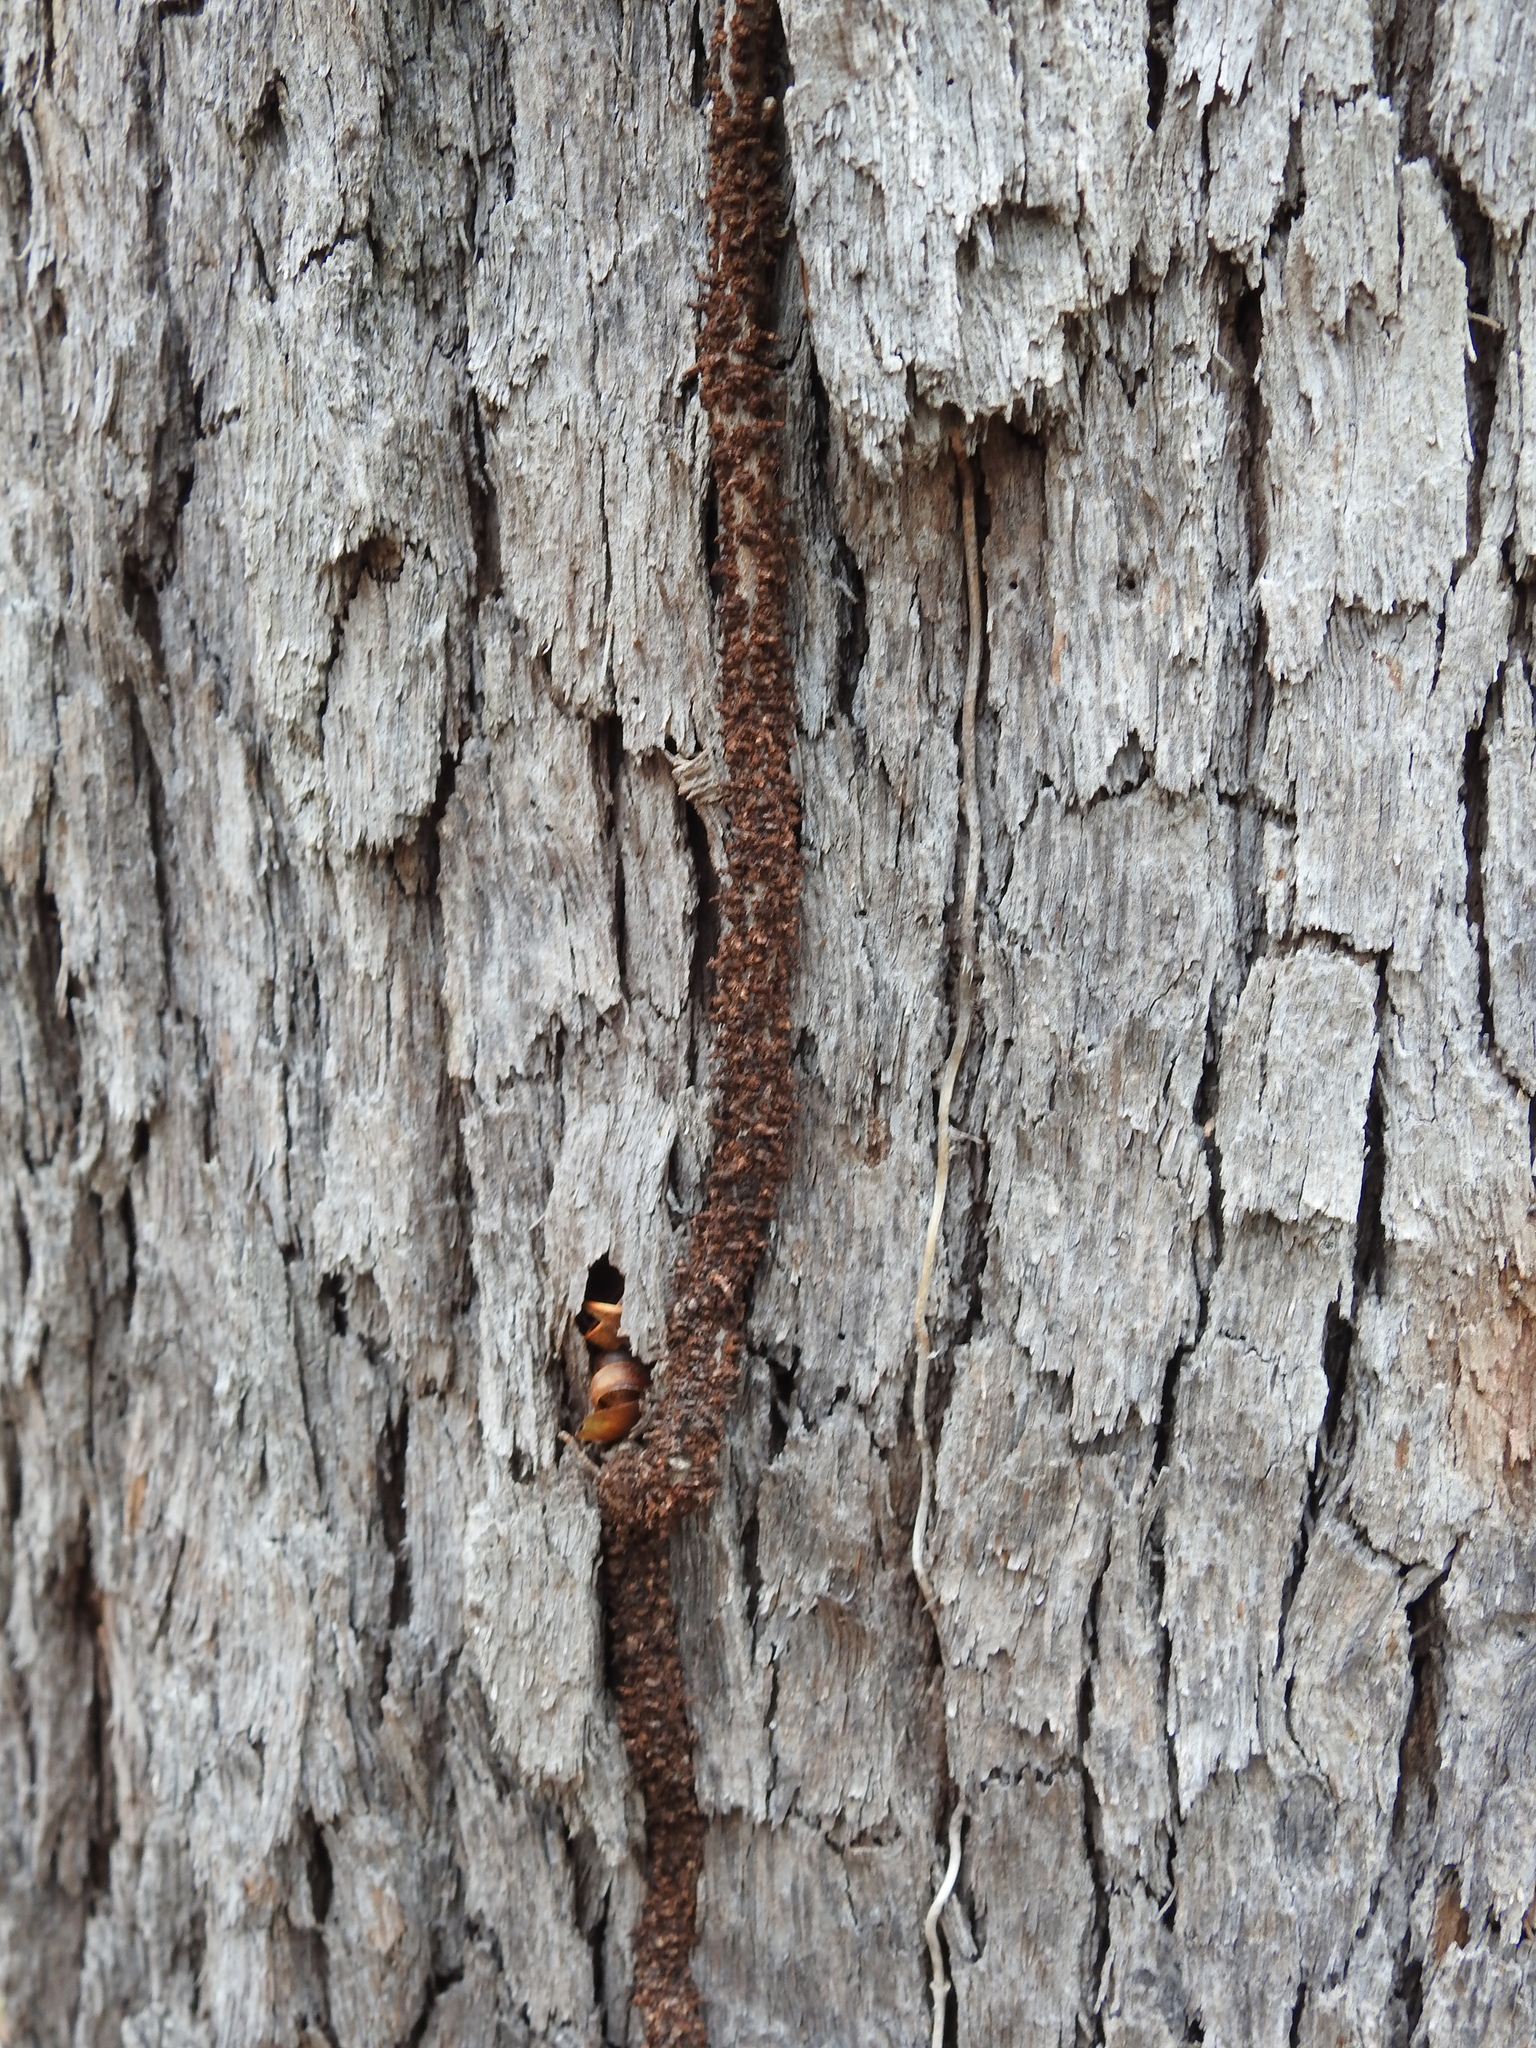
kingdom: Plantae
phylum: Tracheophyta
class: Magnoliopsida
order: Gentianales
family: Apocynaceae
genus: Parsonsia
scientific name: Parsonsia brisbanensis
